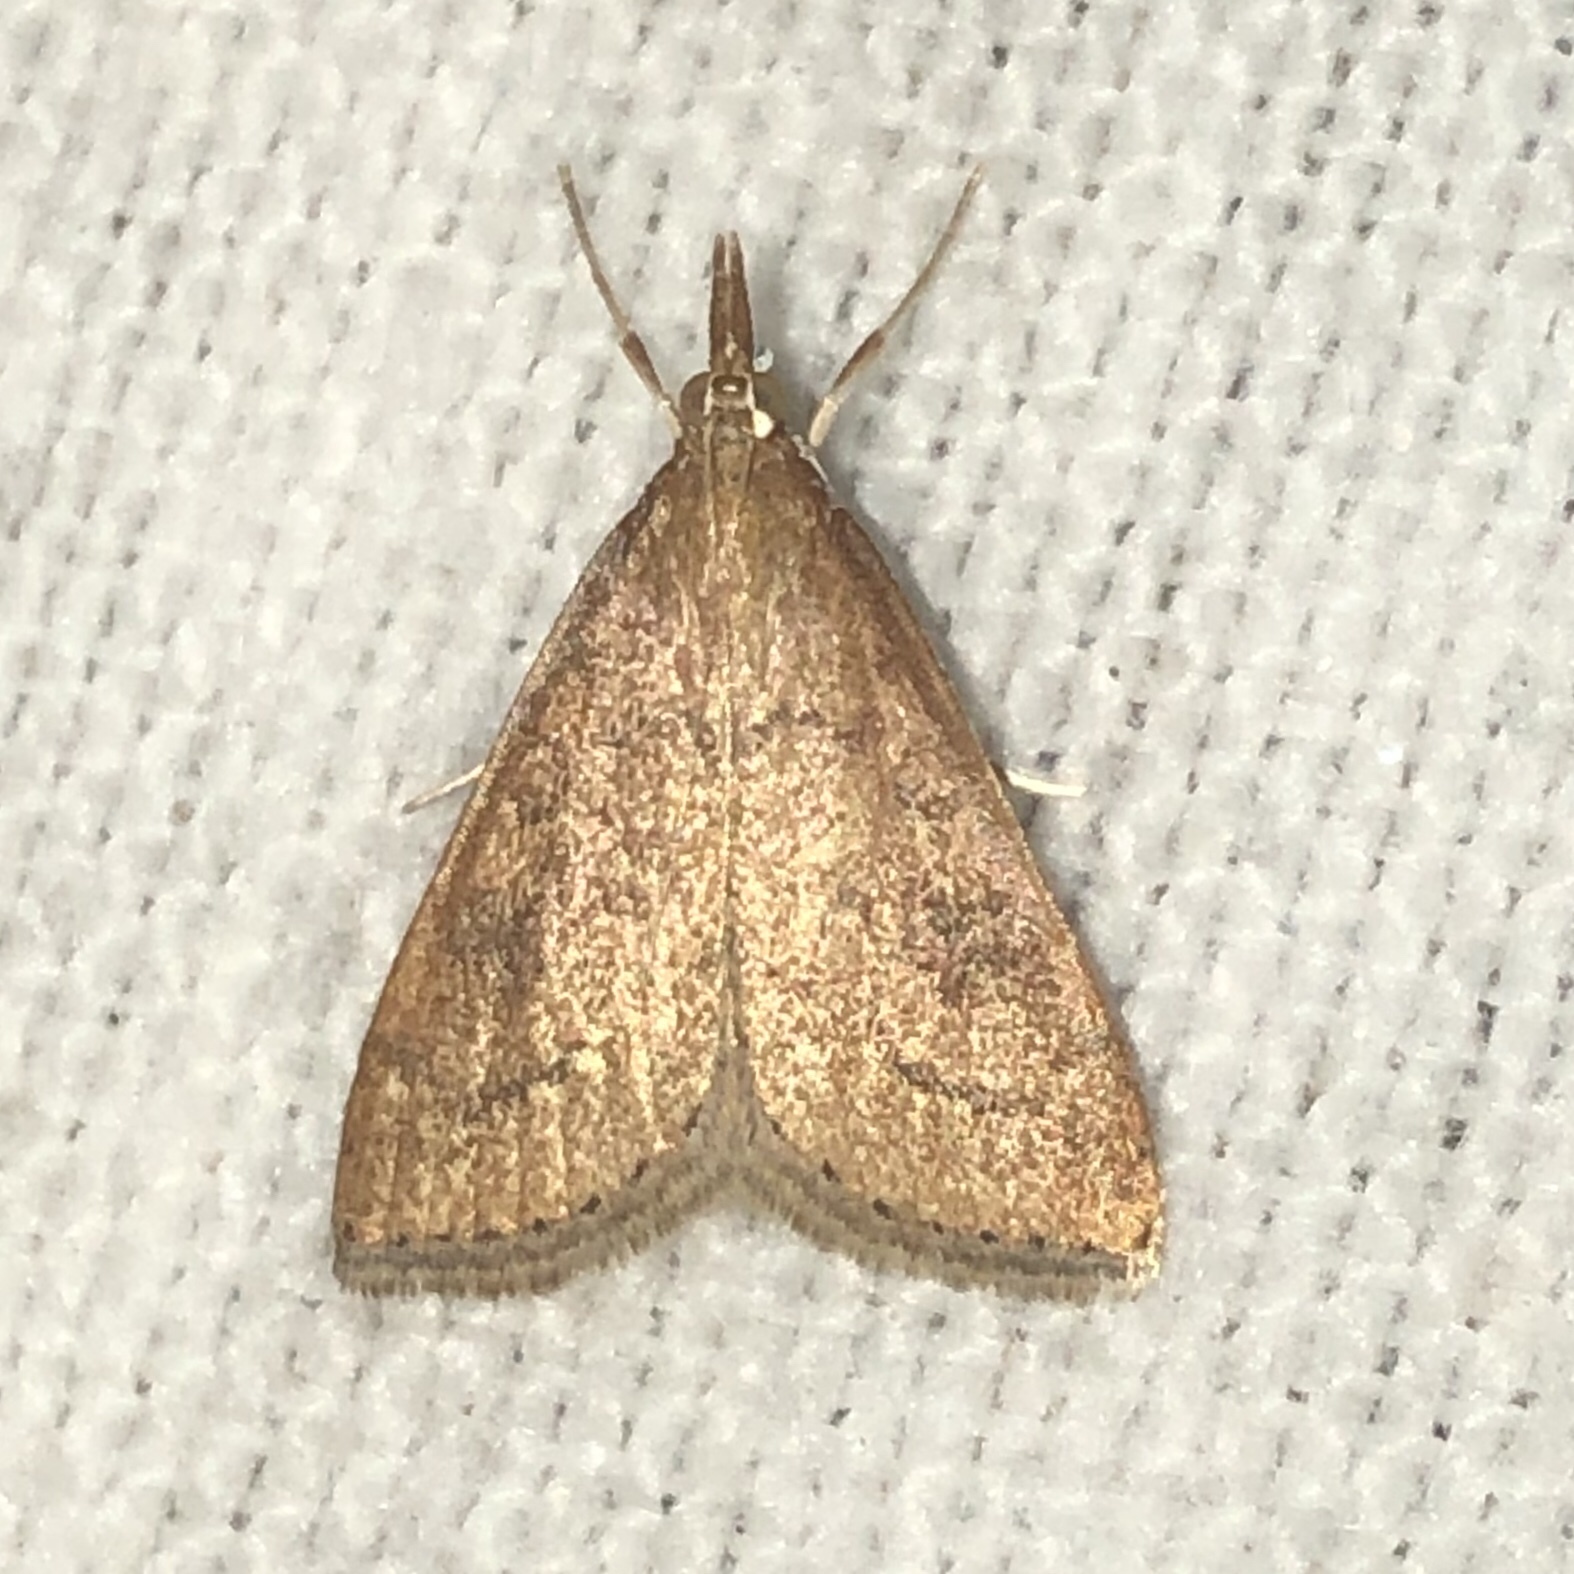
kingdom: Animalia
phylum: Arthropoda
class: Insecta
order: Lepidoptera
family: Crambidae
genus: Udea
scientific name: Udea rubigalis
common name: Celery leaftier moth
